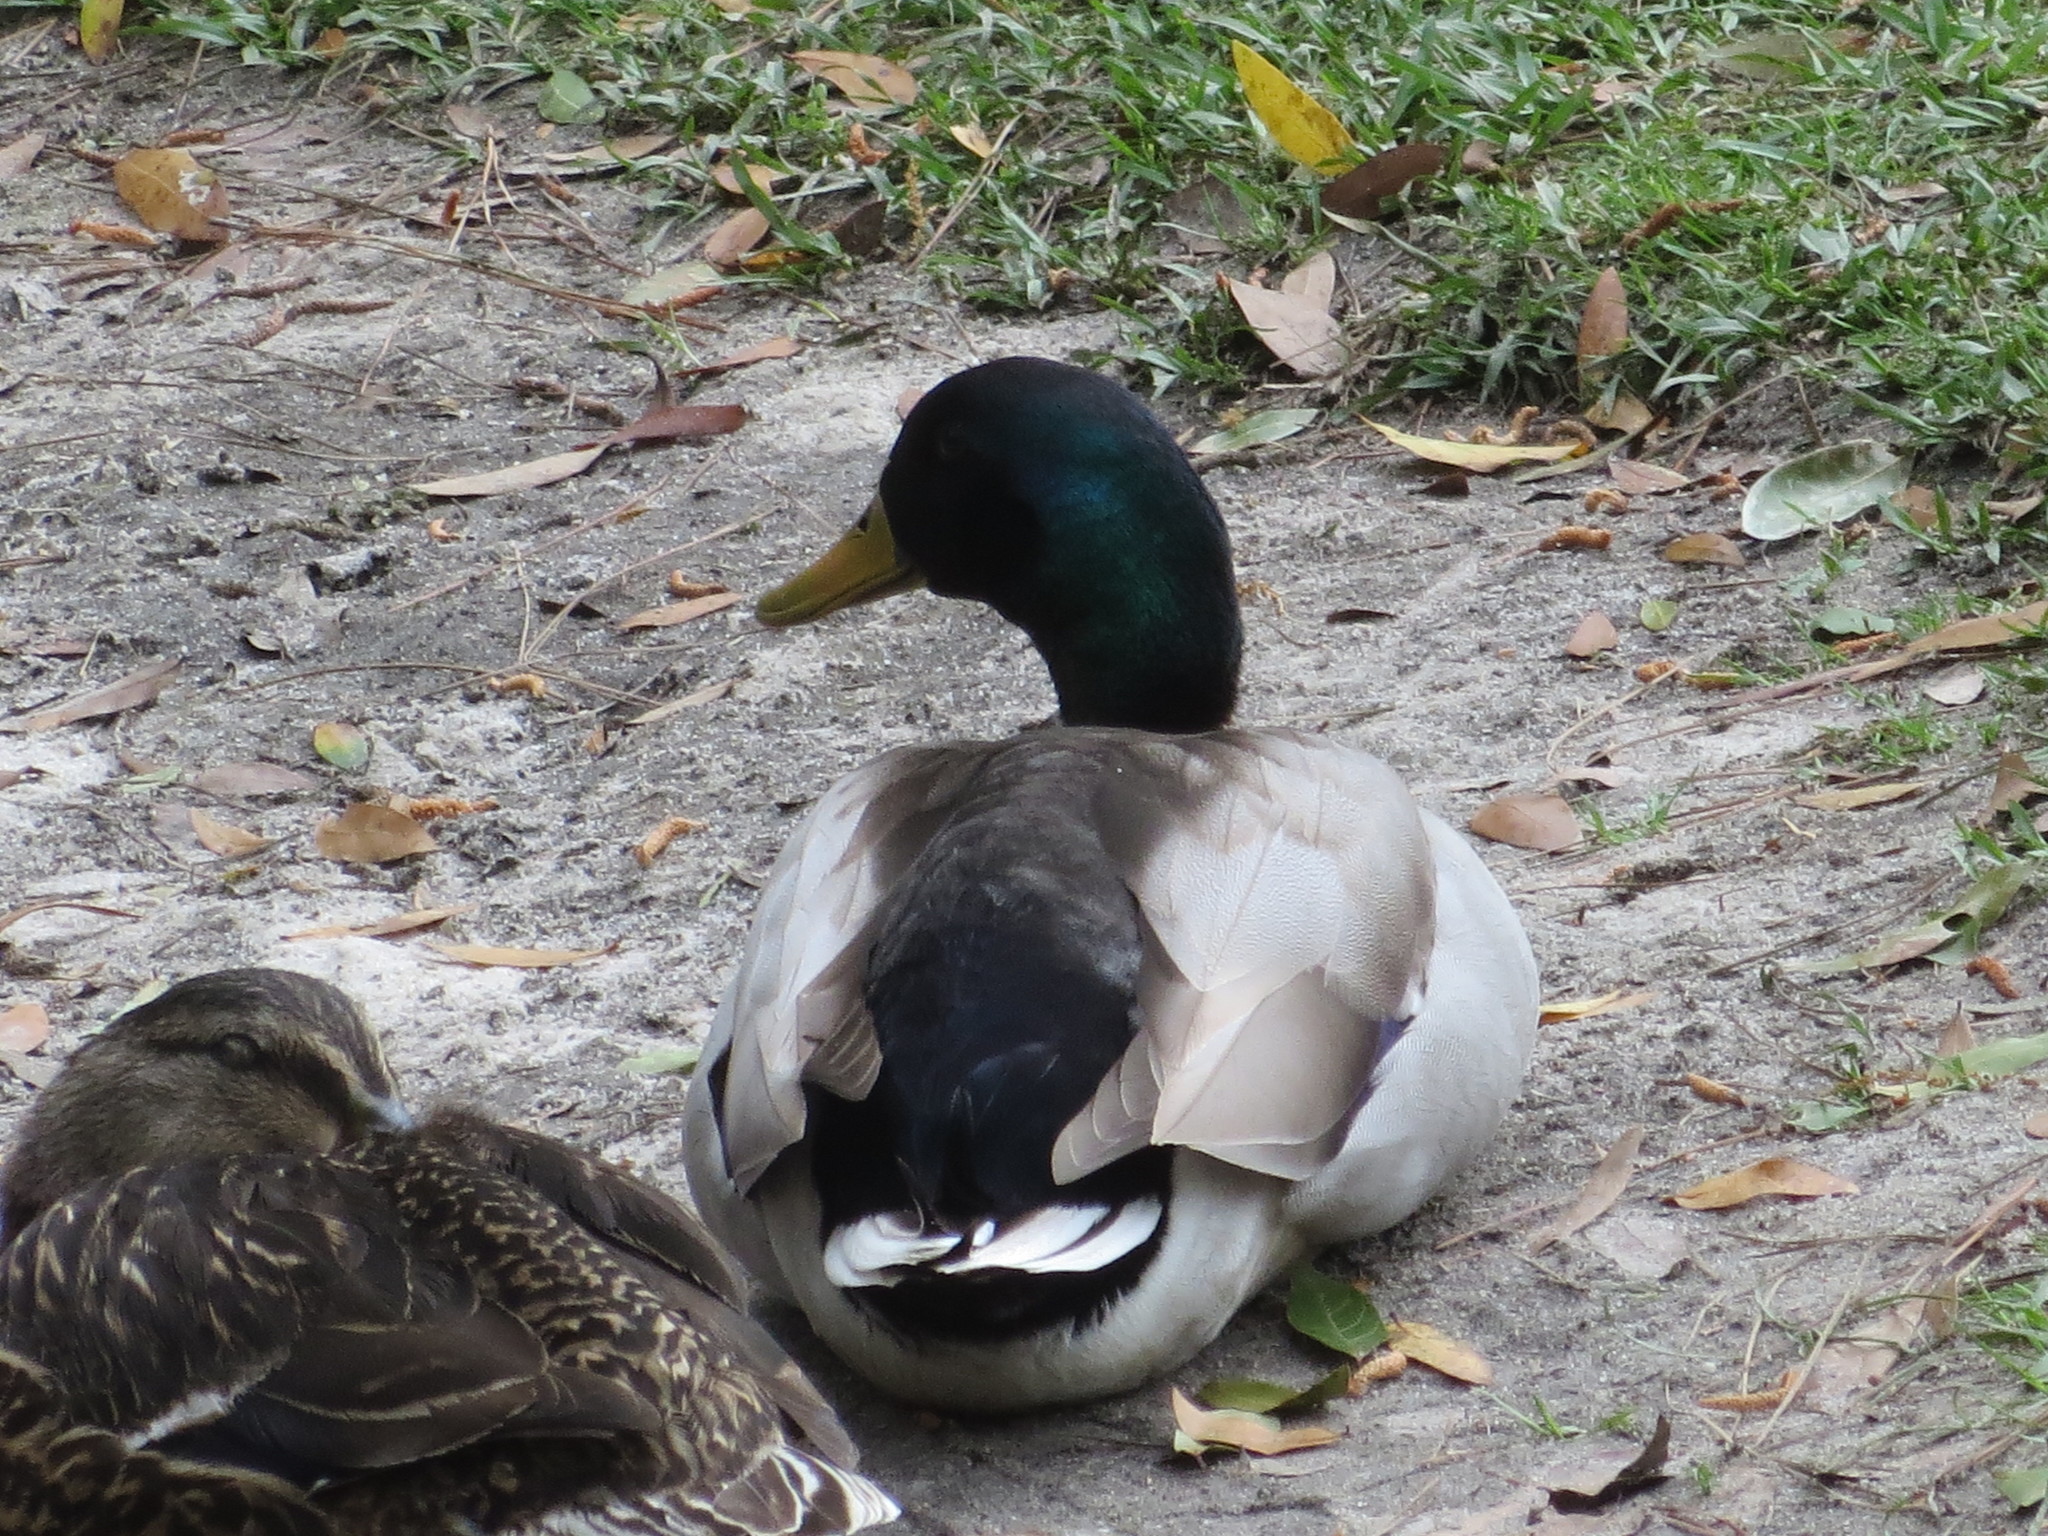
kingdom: Animalia
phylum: Chordata
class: Aves
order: Anseriformes
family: Anatidae
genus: Anas
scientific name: Anas platyrhynchos
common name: Mallard
